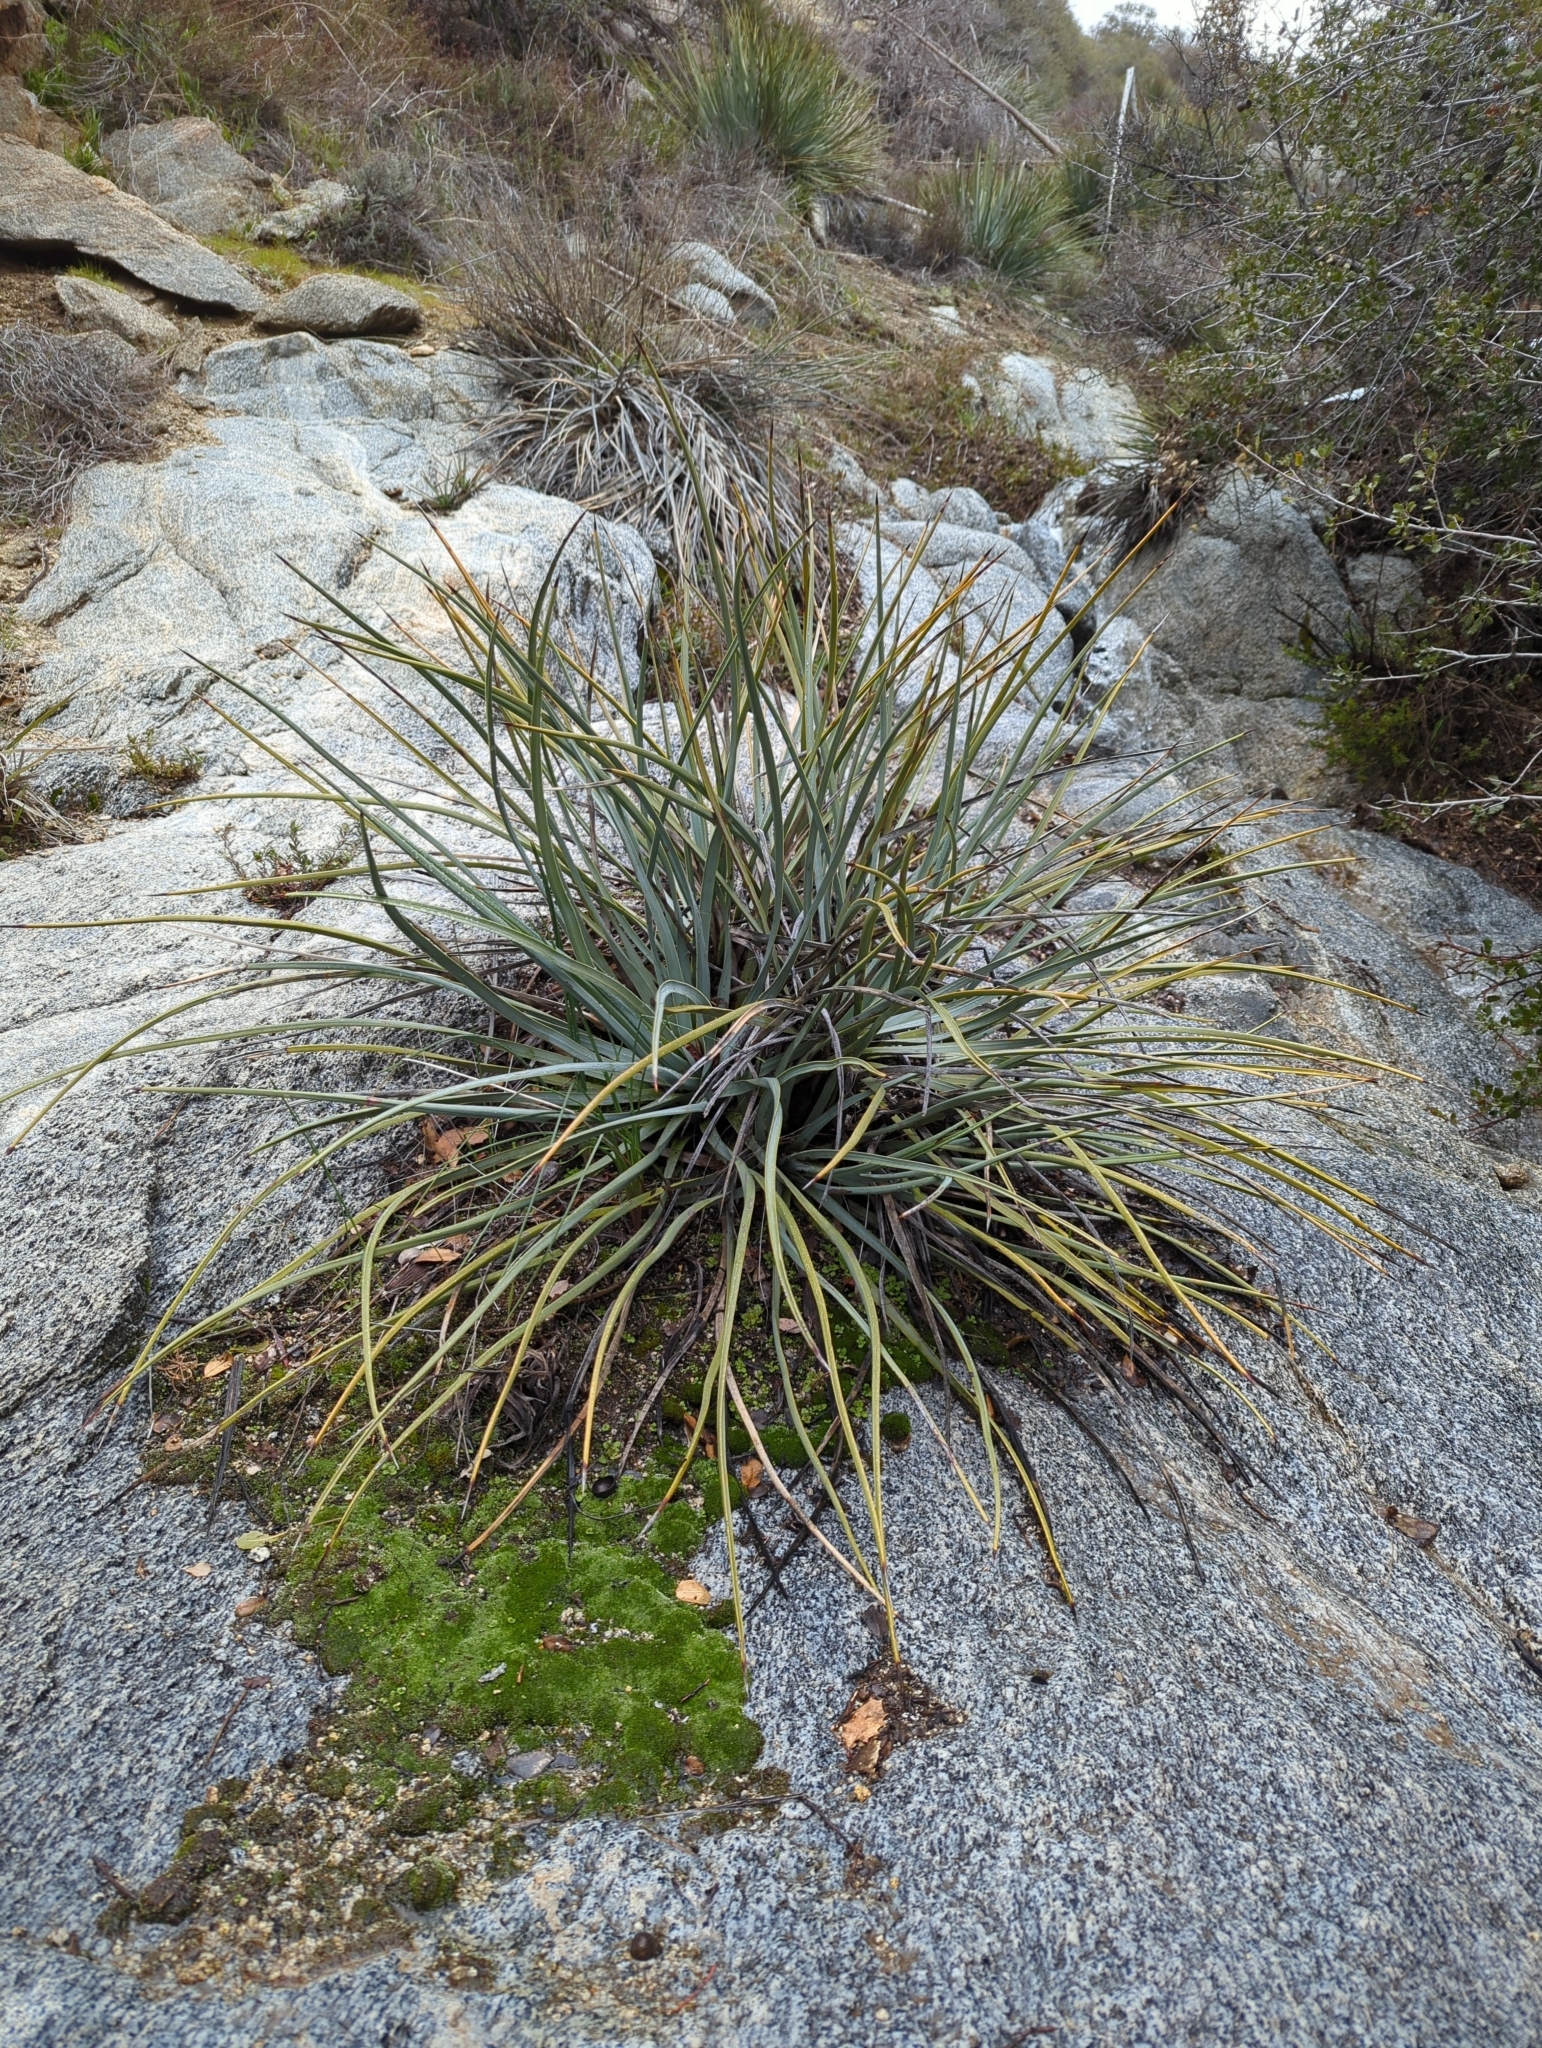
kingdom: Plantae
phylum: Tracheophyta
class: Liliopsida
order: Asparagales
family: Asparagaceae
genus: Hesperoyucca
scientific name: Hesperoyucca whipplei
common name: Our lord's-candle
